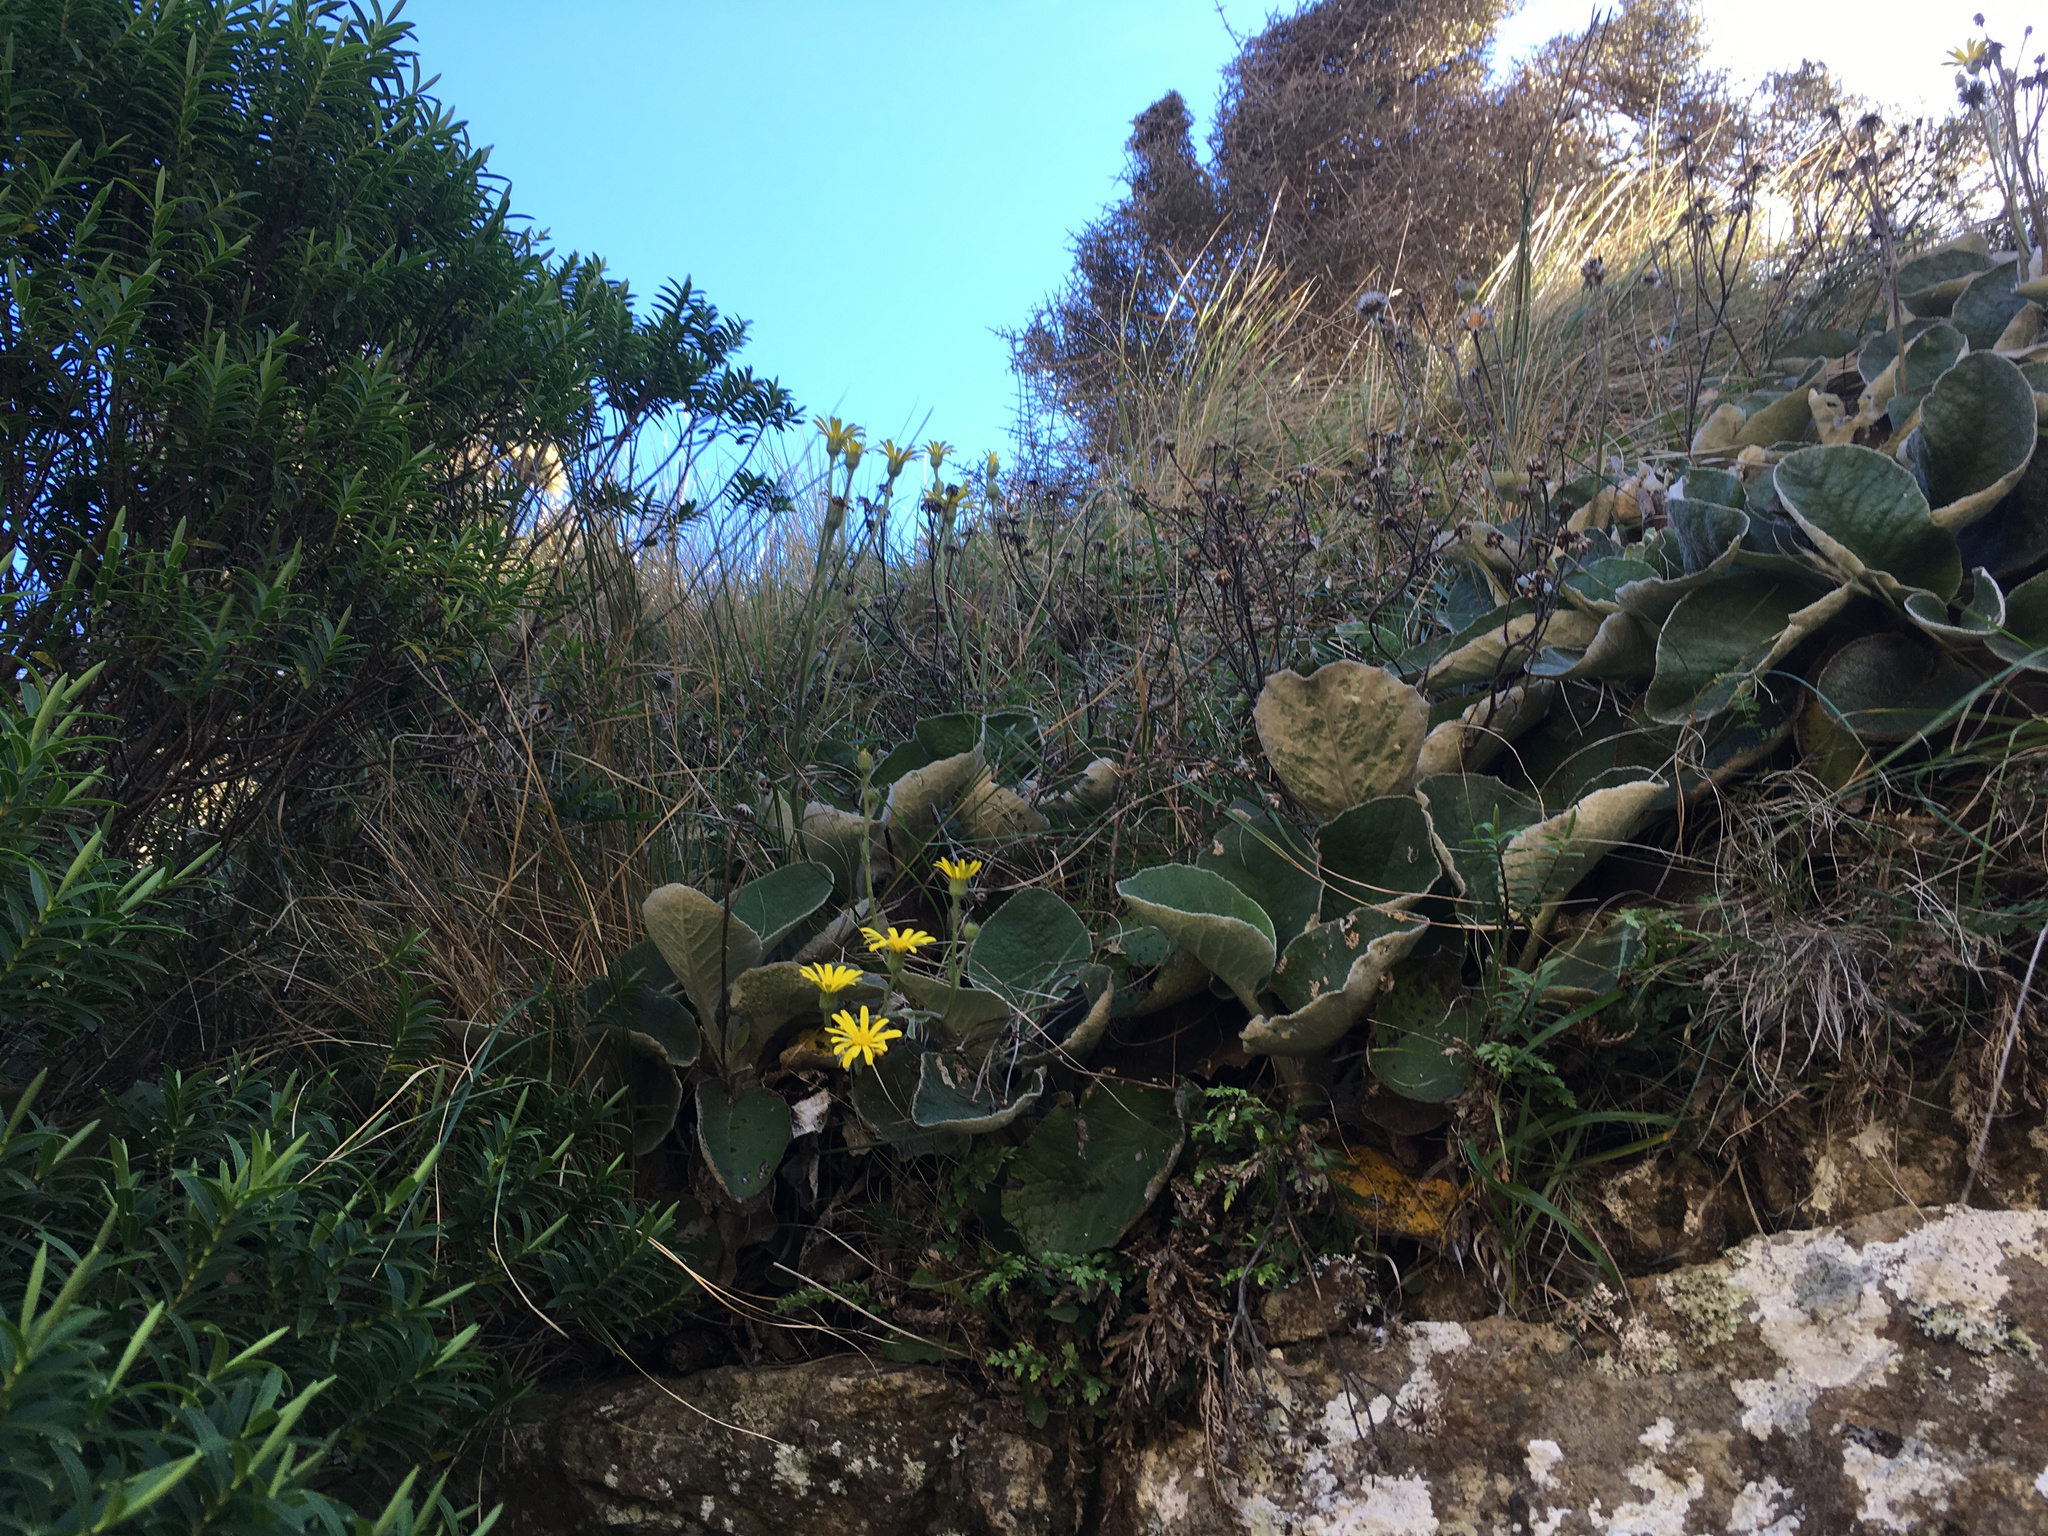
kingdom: Plantae
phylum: Tracheophyta
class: Magnoliopsida
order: Asterales
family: Asteraceae
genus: Brachyglottis
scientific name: Brachyglottis lagopus
